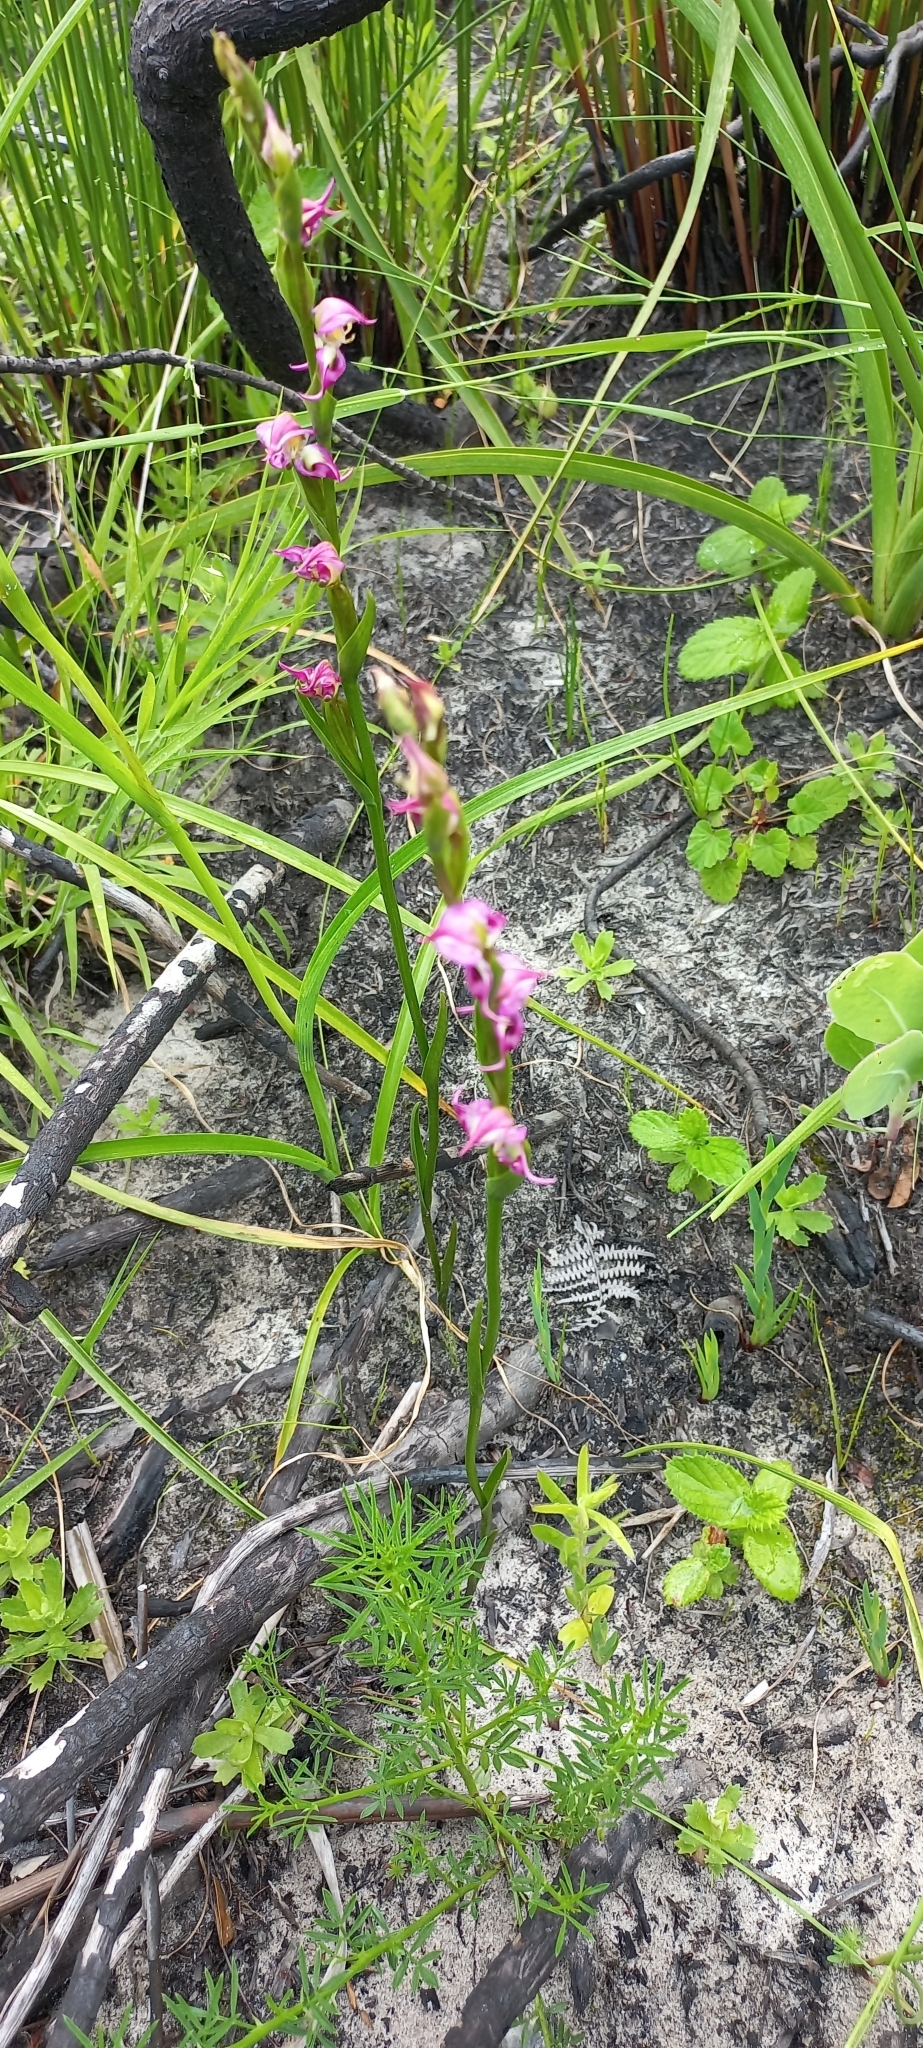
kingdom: Plantae
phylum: Tracheophyta
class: Liliopsida
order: Asparagales
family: Orchidaceae
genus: Disperis
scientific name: Disperis paludosa
